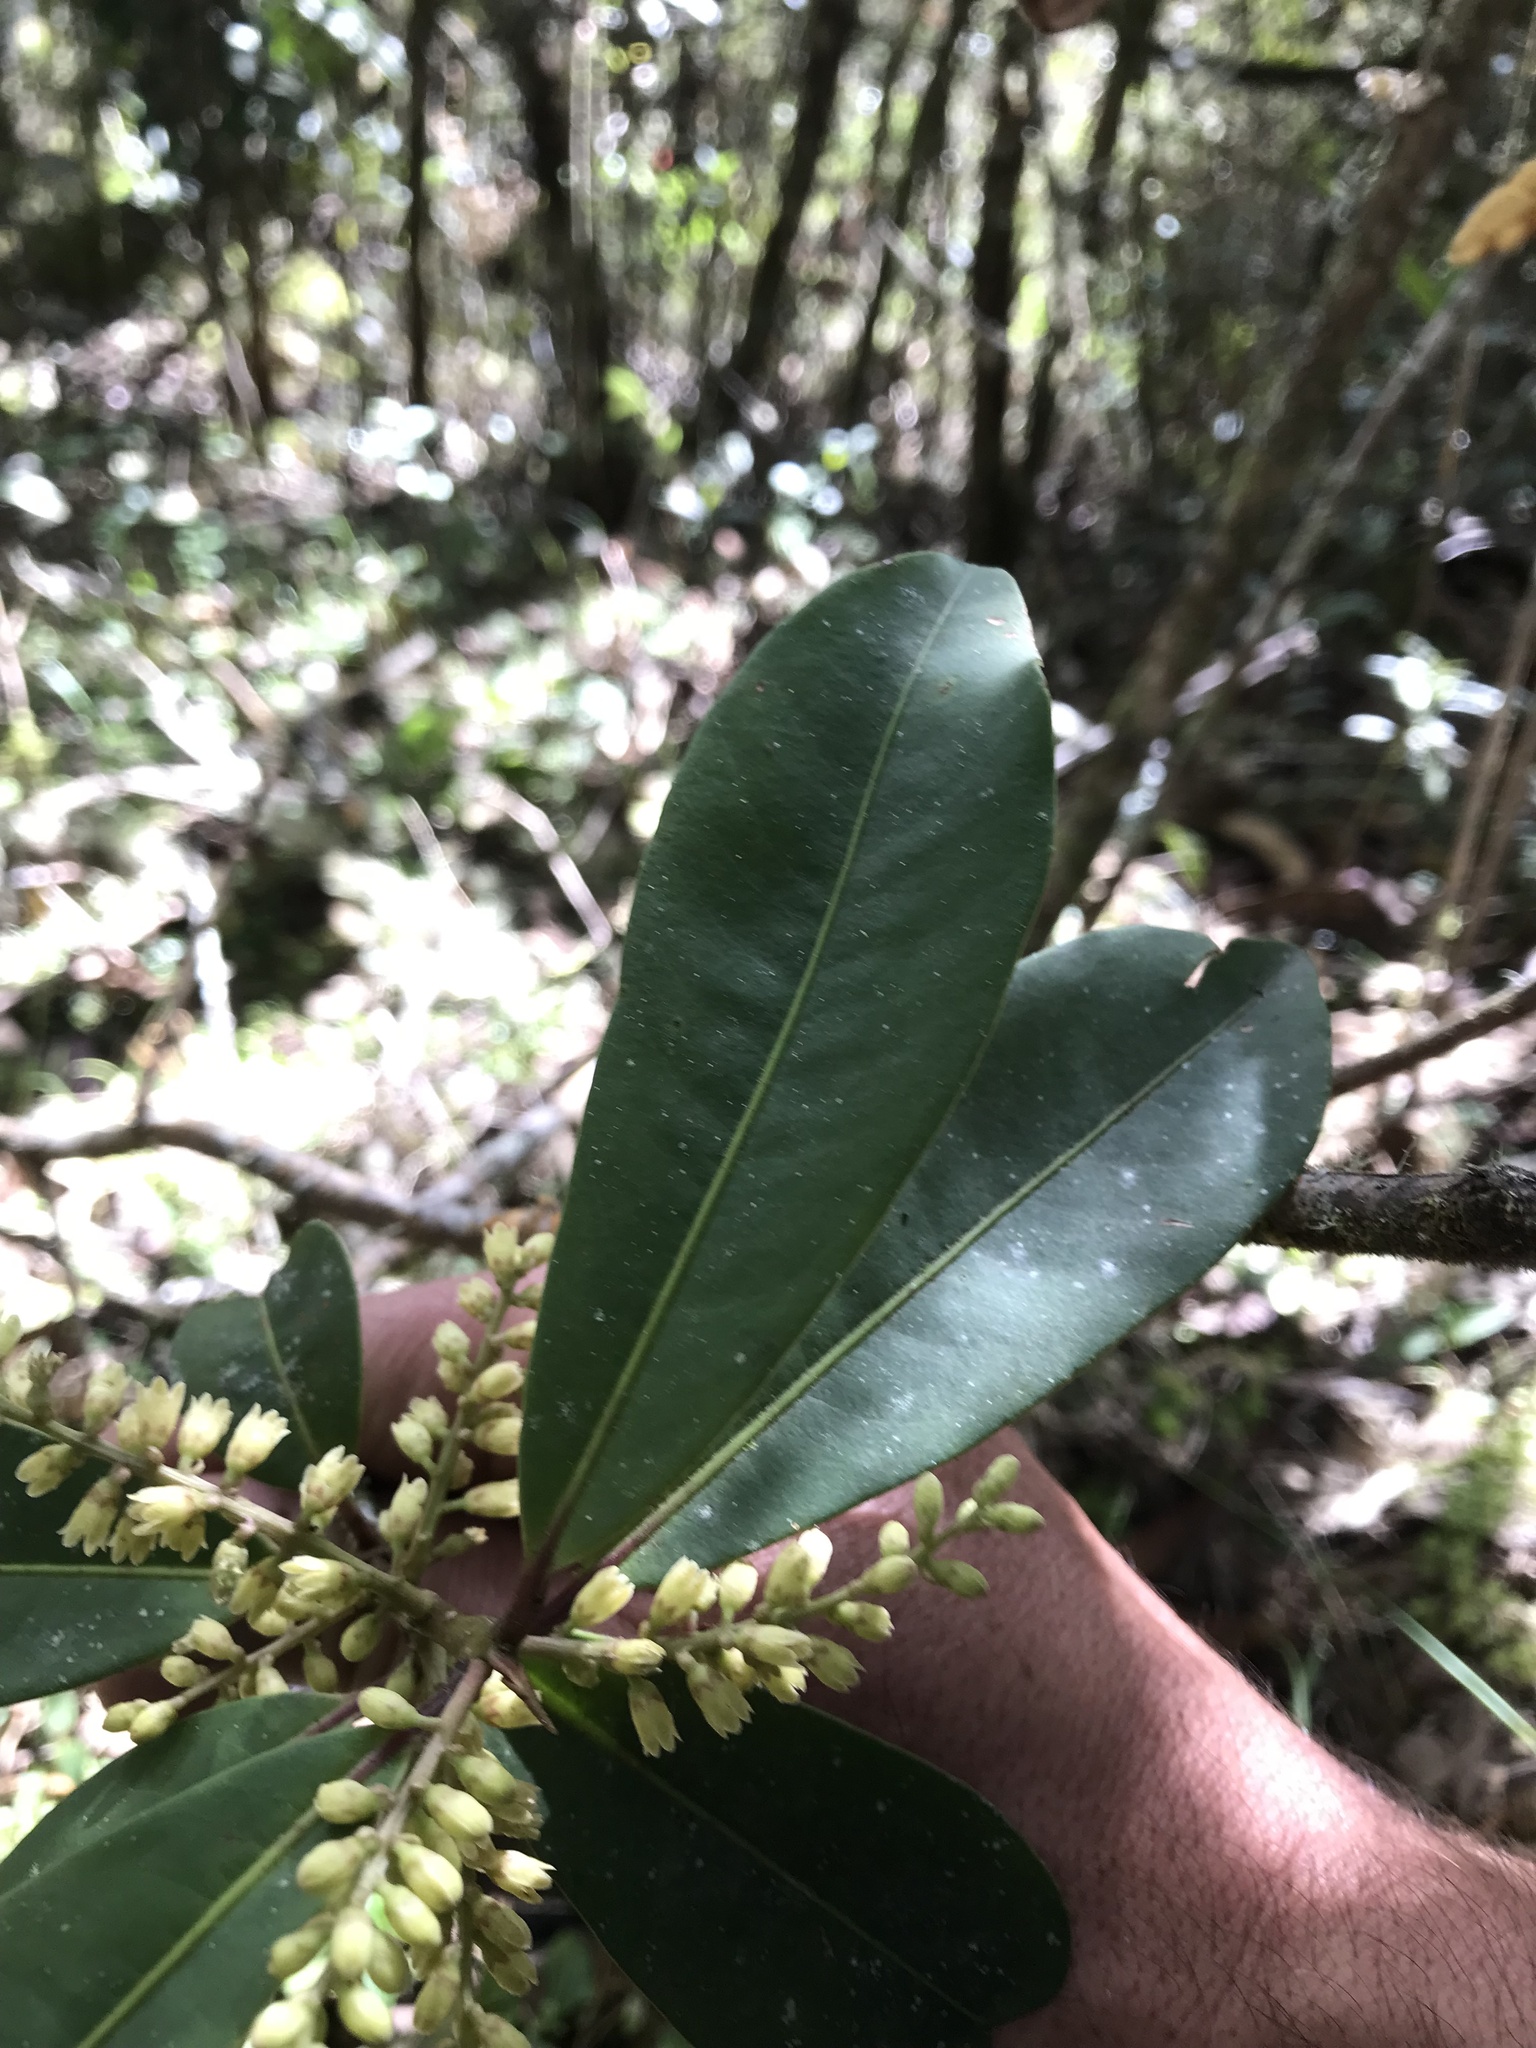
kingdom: Plantae
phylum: Tracheophyta
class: Magnoliopsida
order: Ericales
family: Primulaceae
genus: Cybianthus
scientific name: Cybianthus iteoides
